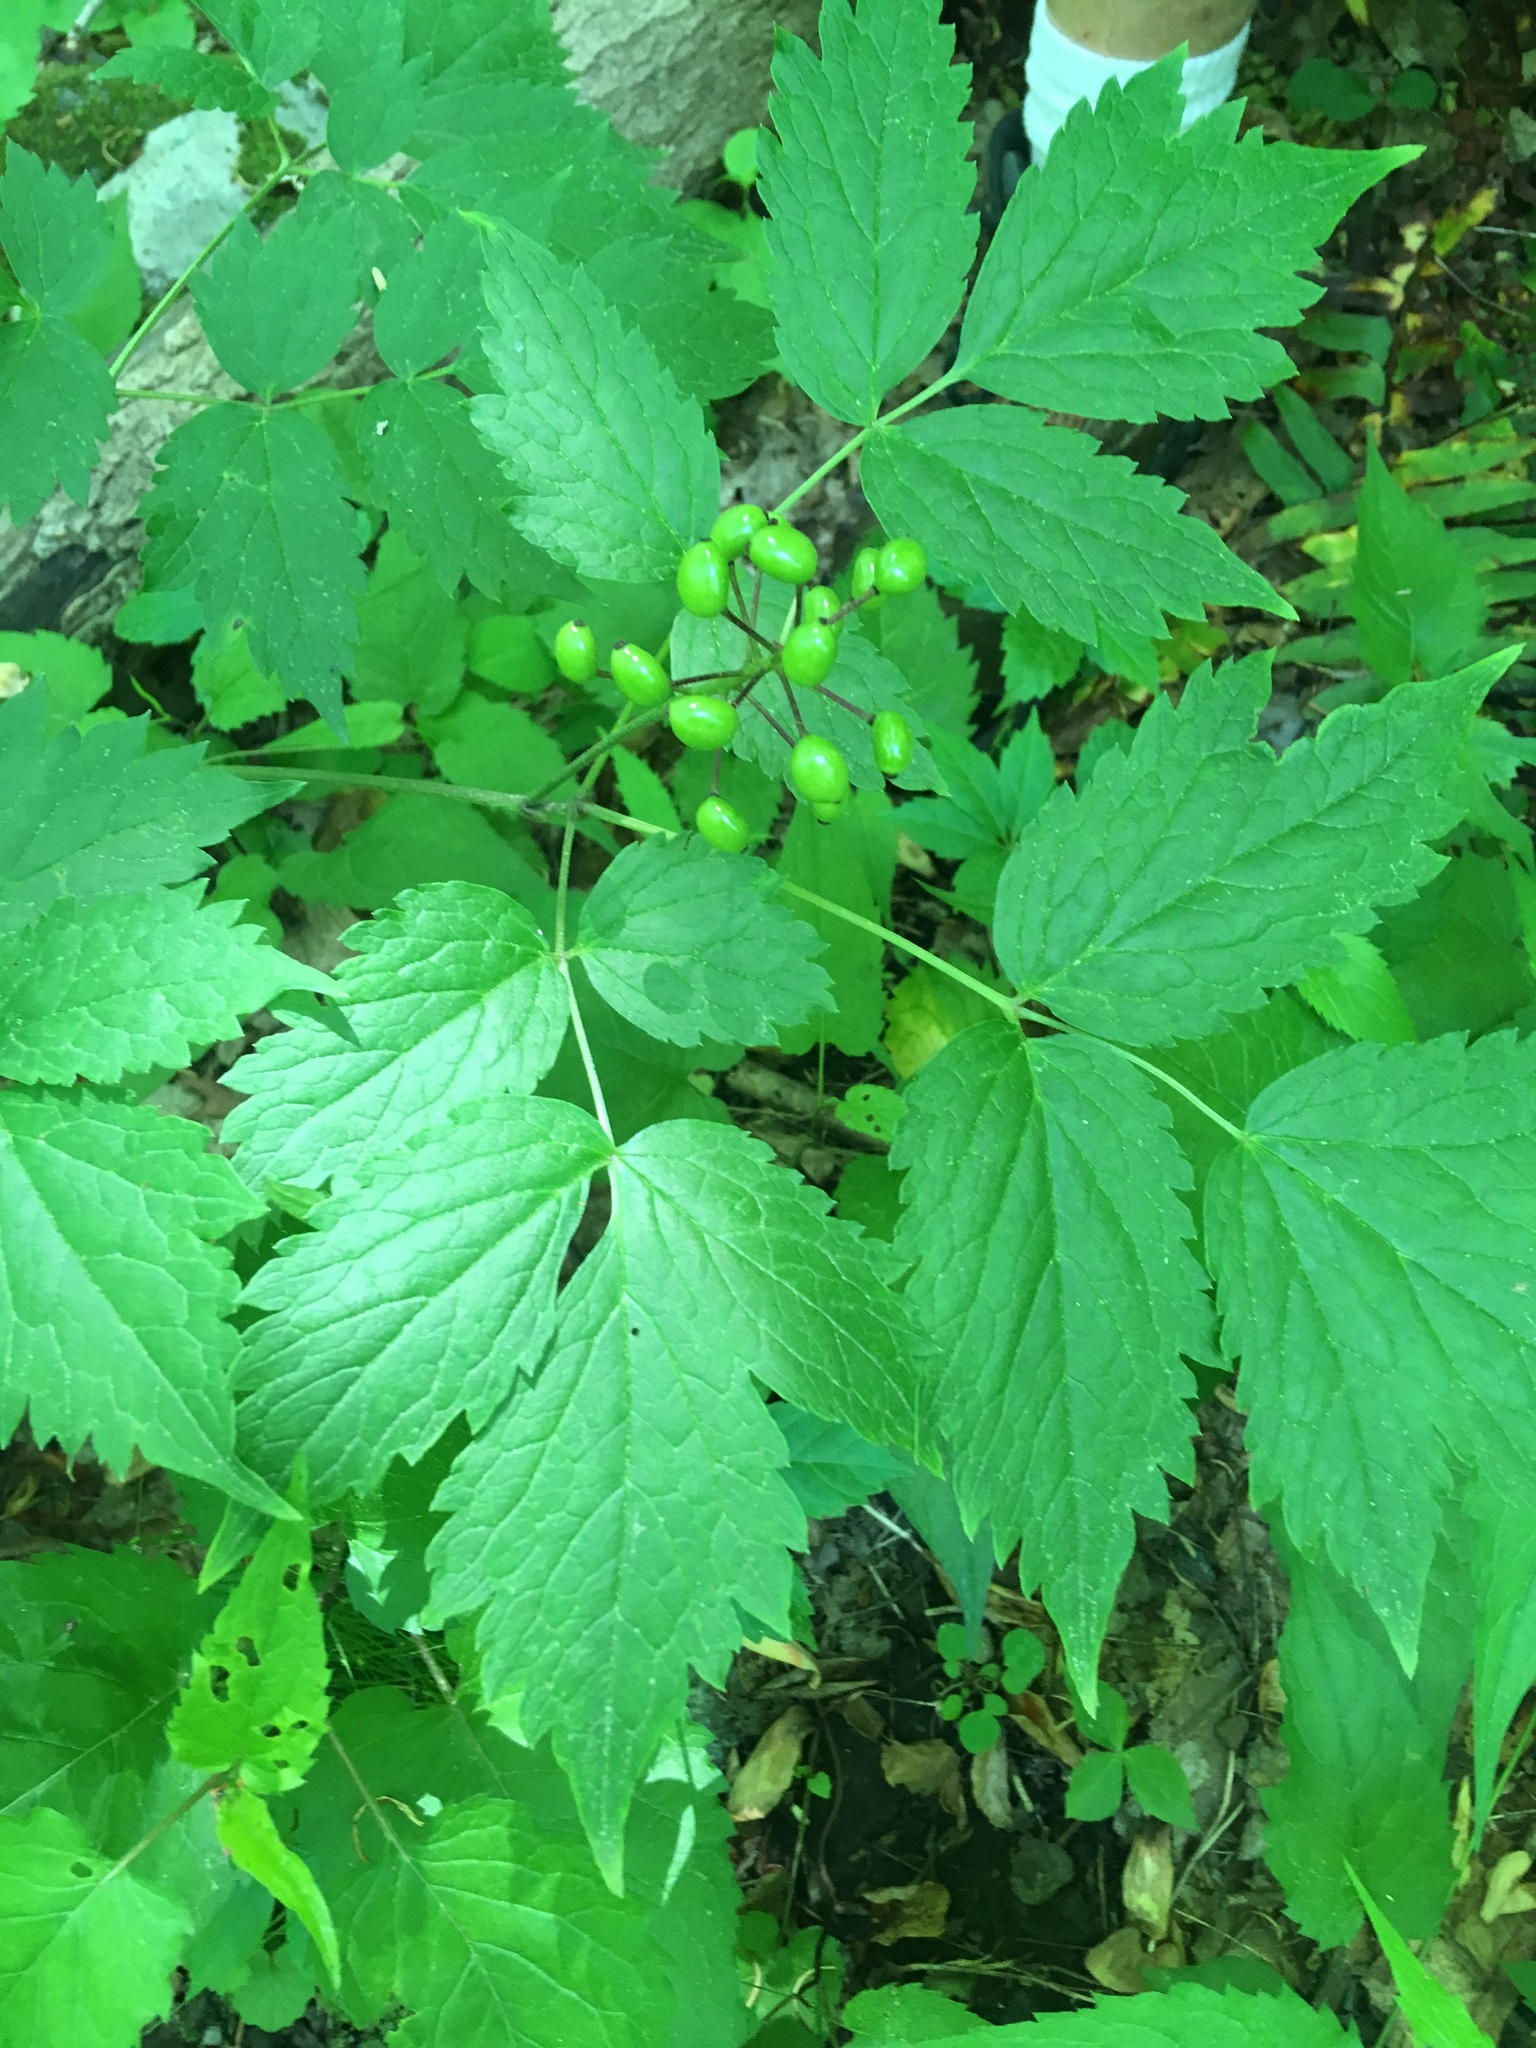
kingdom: Plantae
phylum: Tracheophyta
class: Magnoliopsida
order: Ranunculales
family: Ranunculaceae
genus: Actaea
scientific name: Actaea rubra
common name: Red baneberry
